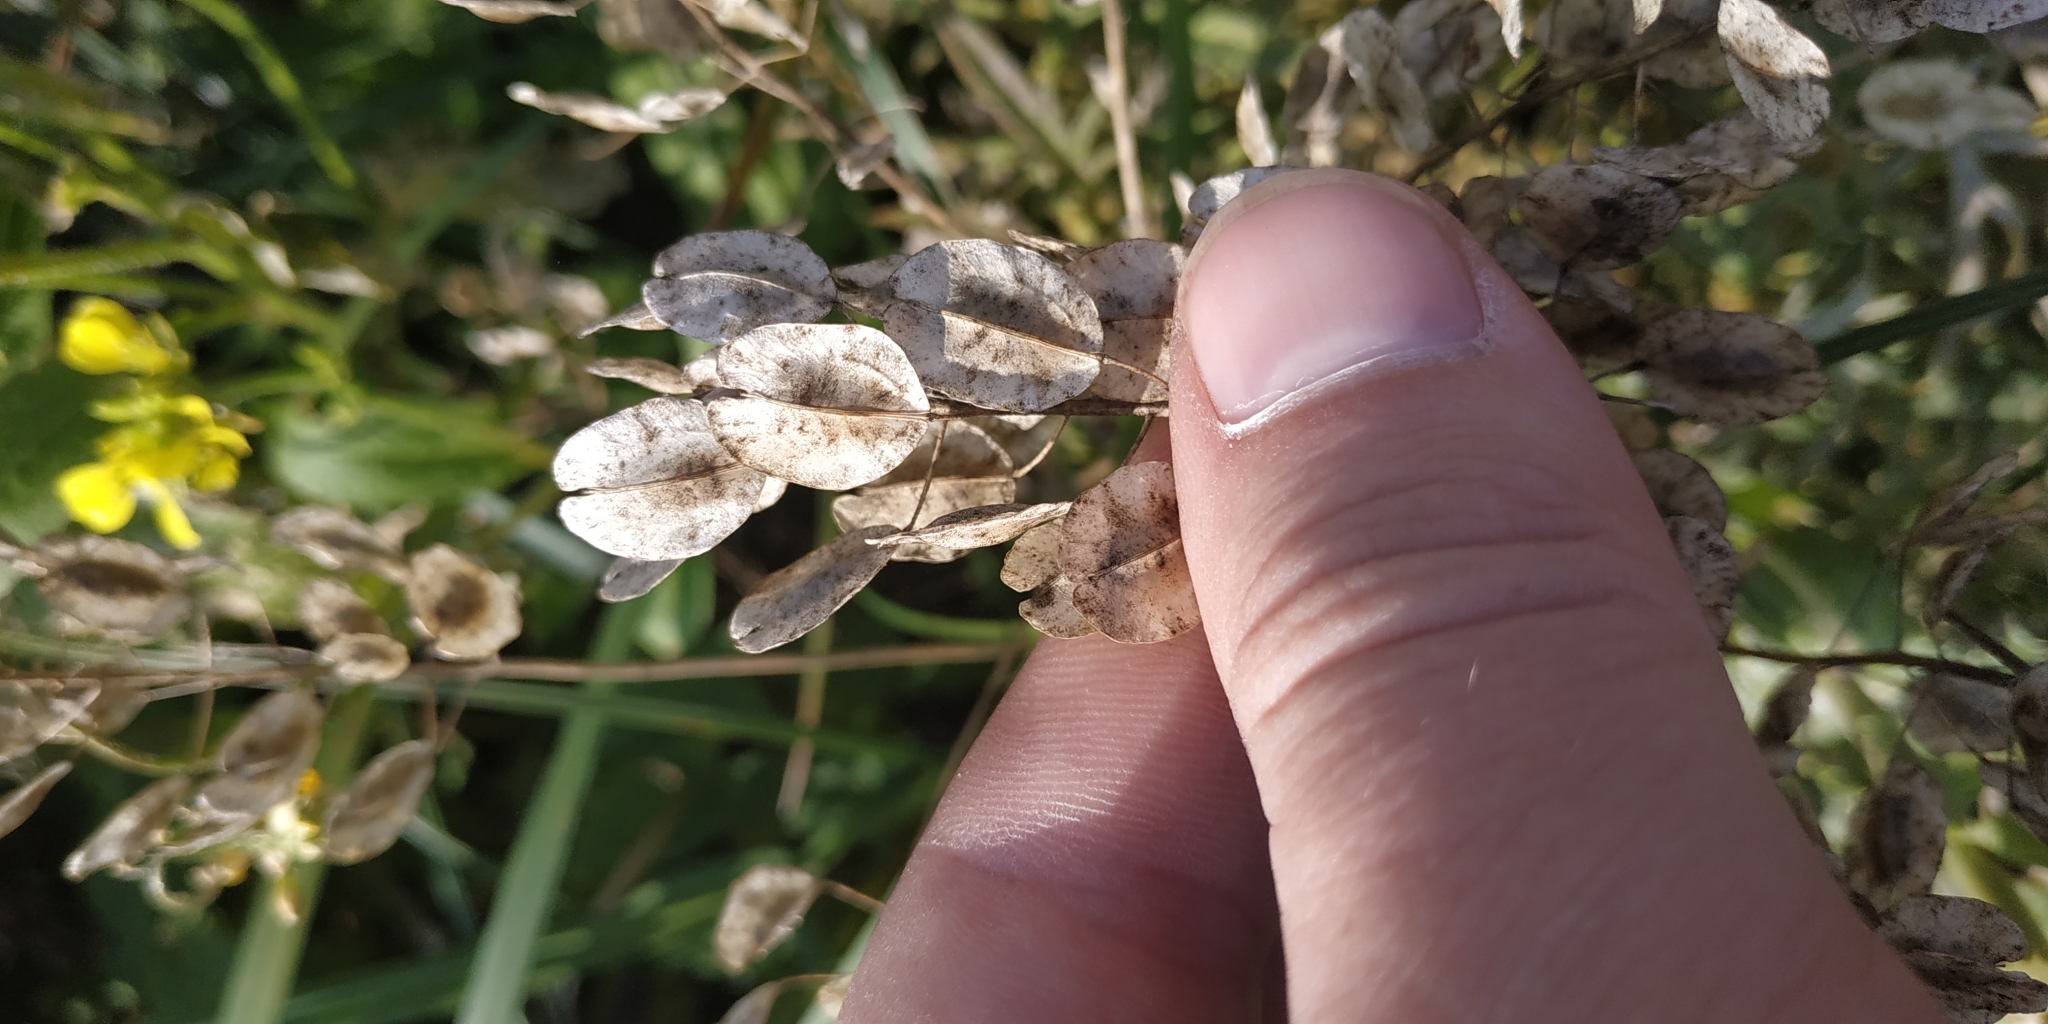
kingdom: Plantae
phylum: Tracheophyta
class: Magnoliopsida
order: Brassicales
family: Brassicaceae
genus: Thlaspi
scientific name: Thlaspi arvense
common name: Field pennycress
